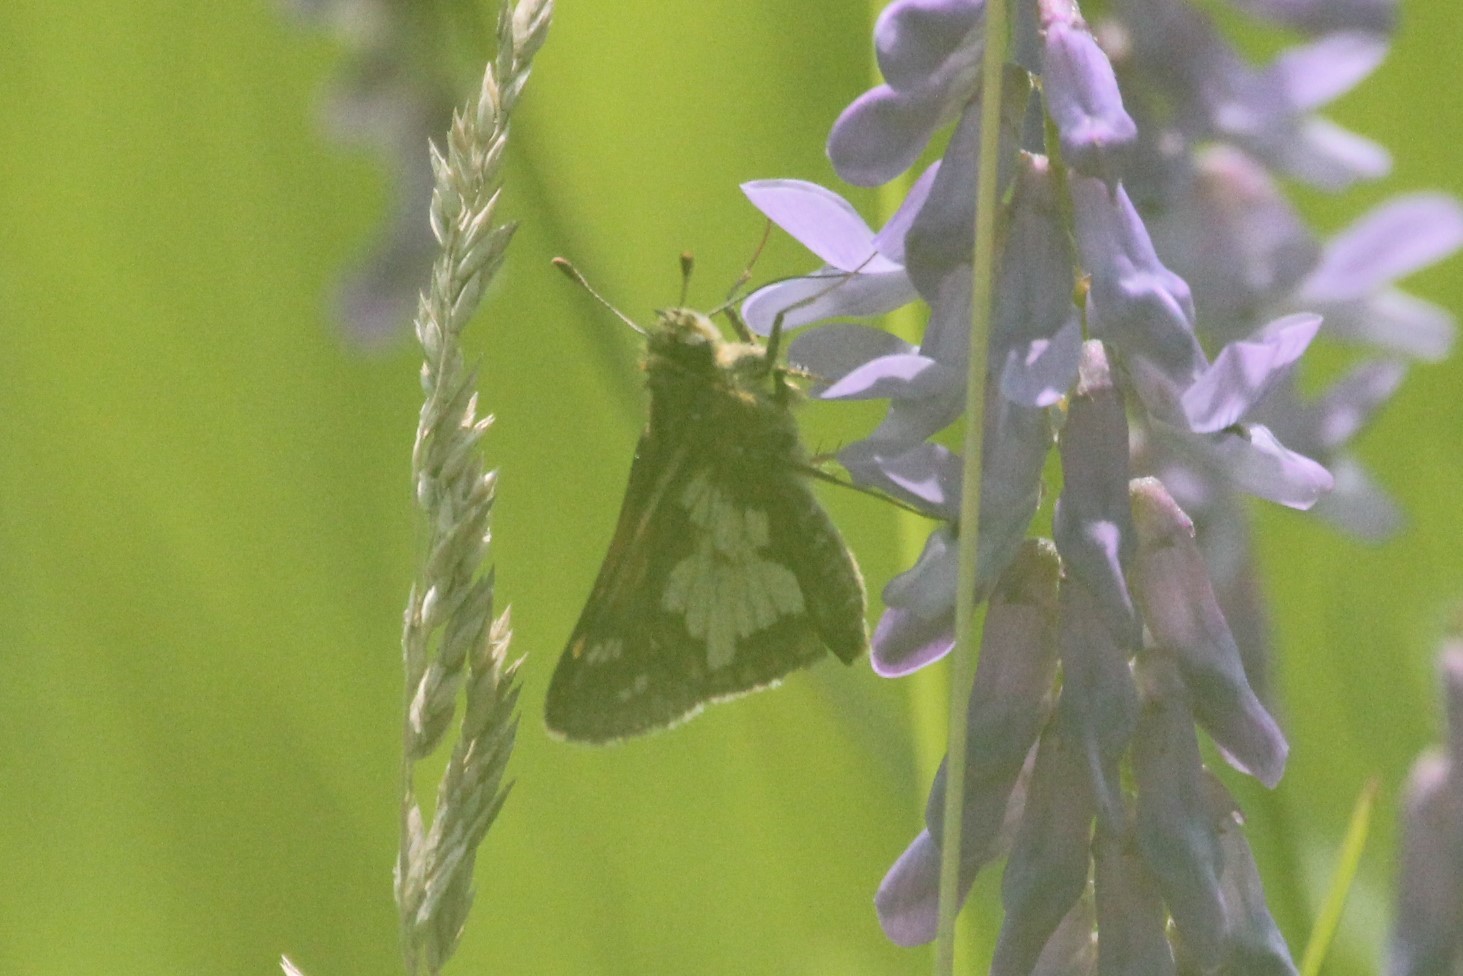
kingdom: Animalia
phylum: Arthropoda
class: Insecta
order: Lepidoptera
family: Hesperiidae
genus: Polites
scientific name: Polites coras
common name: Peck's skipper
